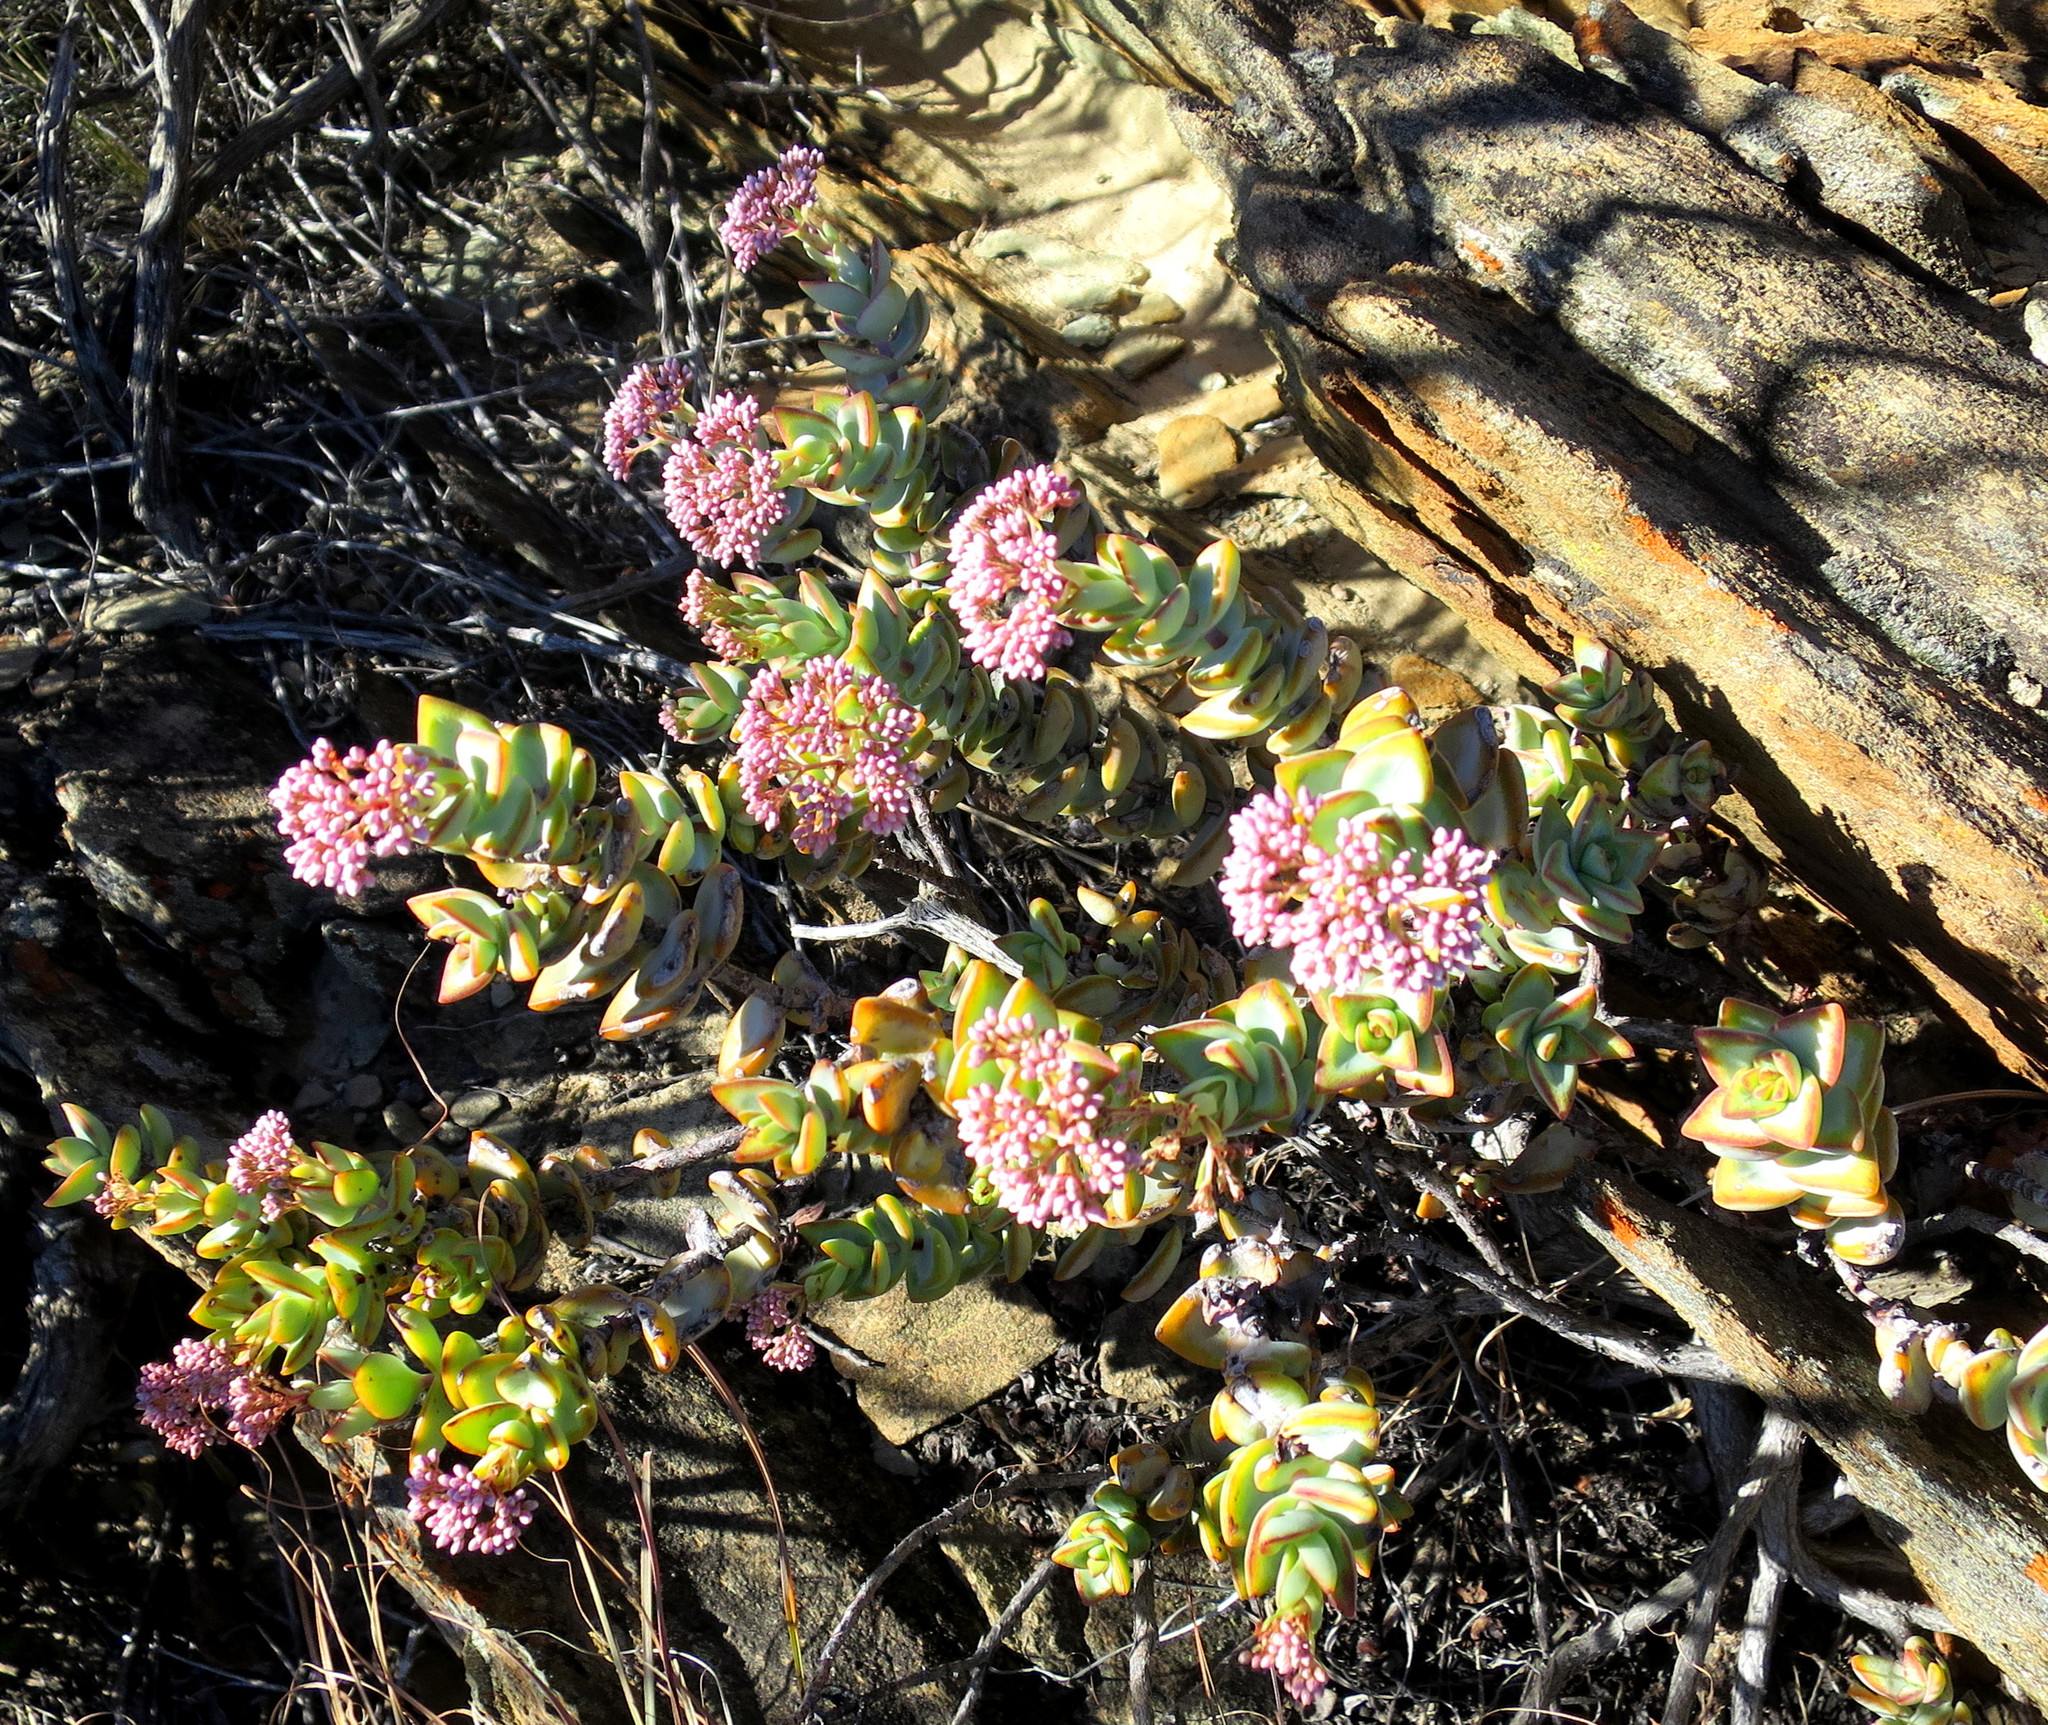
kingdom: Plantae
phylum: Tracheophyta
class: Magnoliopsida
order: Saxifragales
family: Crassulaceae
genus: Crassula
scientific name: Crassula rupestris
